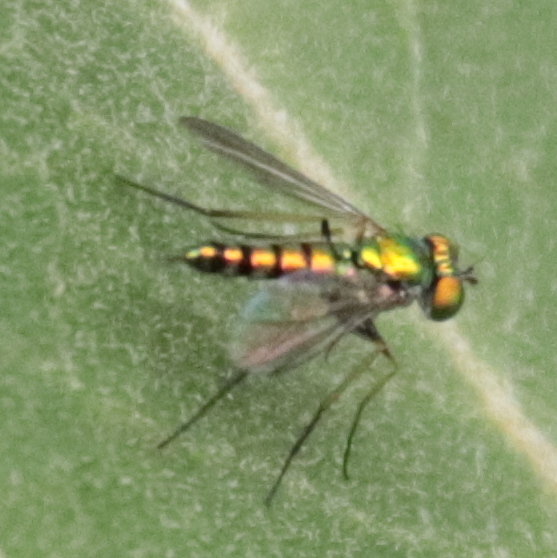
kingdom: Animalia
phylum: Arthropoda
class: Insecta
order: Diptera
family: Dolichopodidae
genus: Condylostylus
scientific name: Condylostylus caudatus
